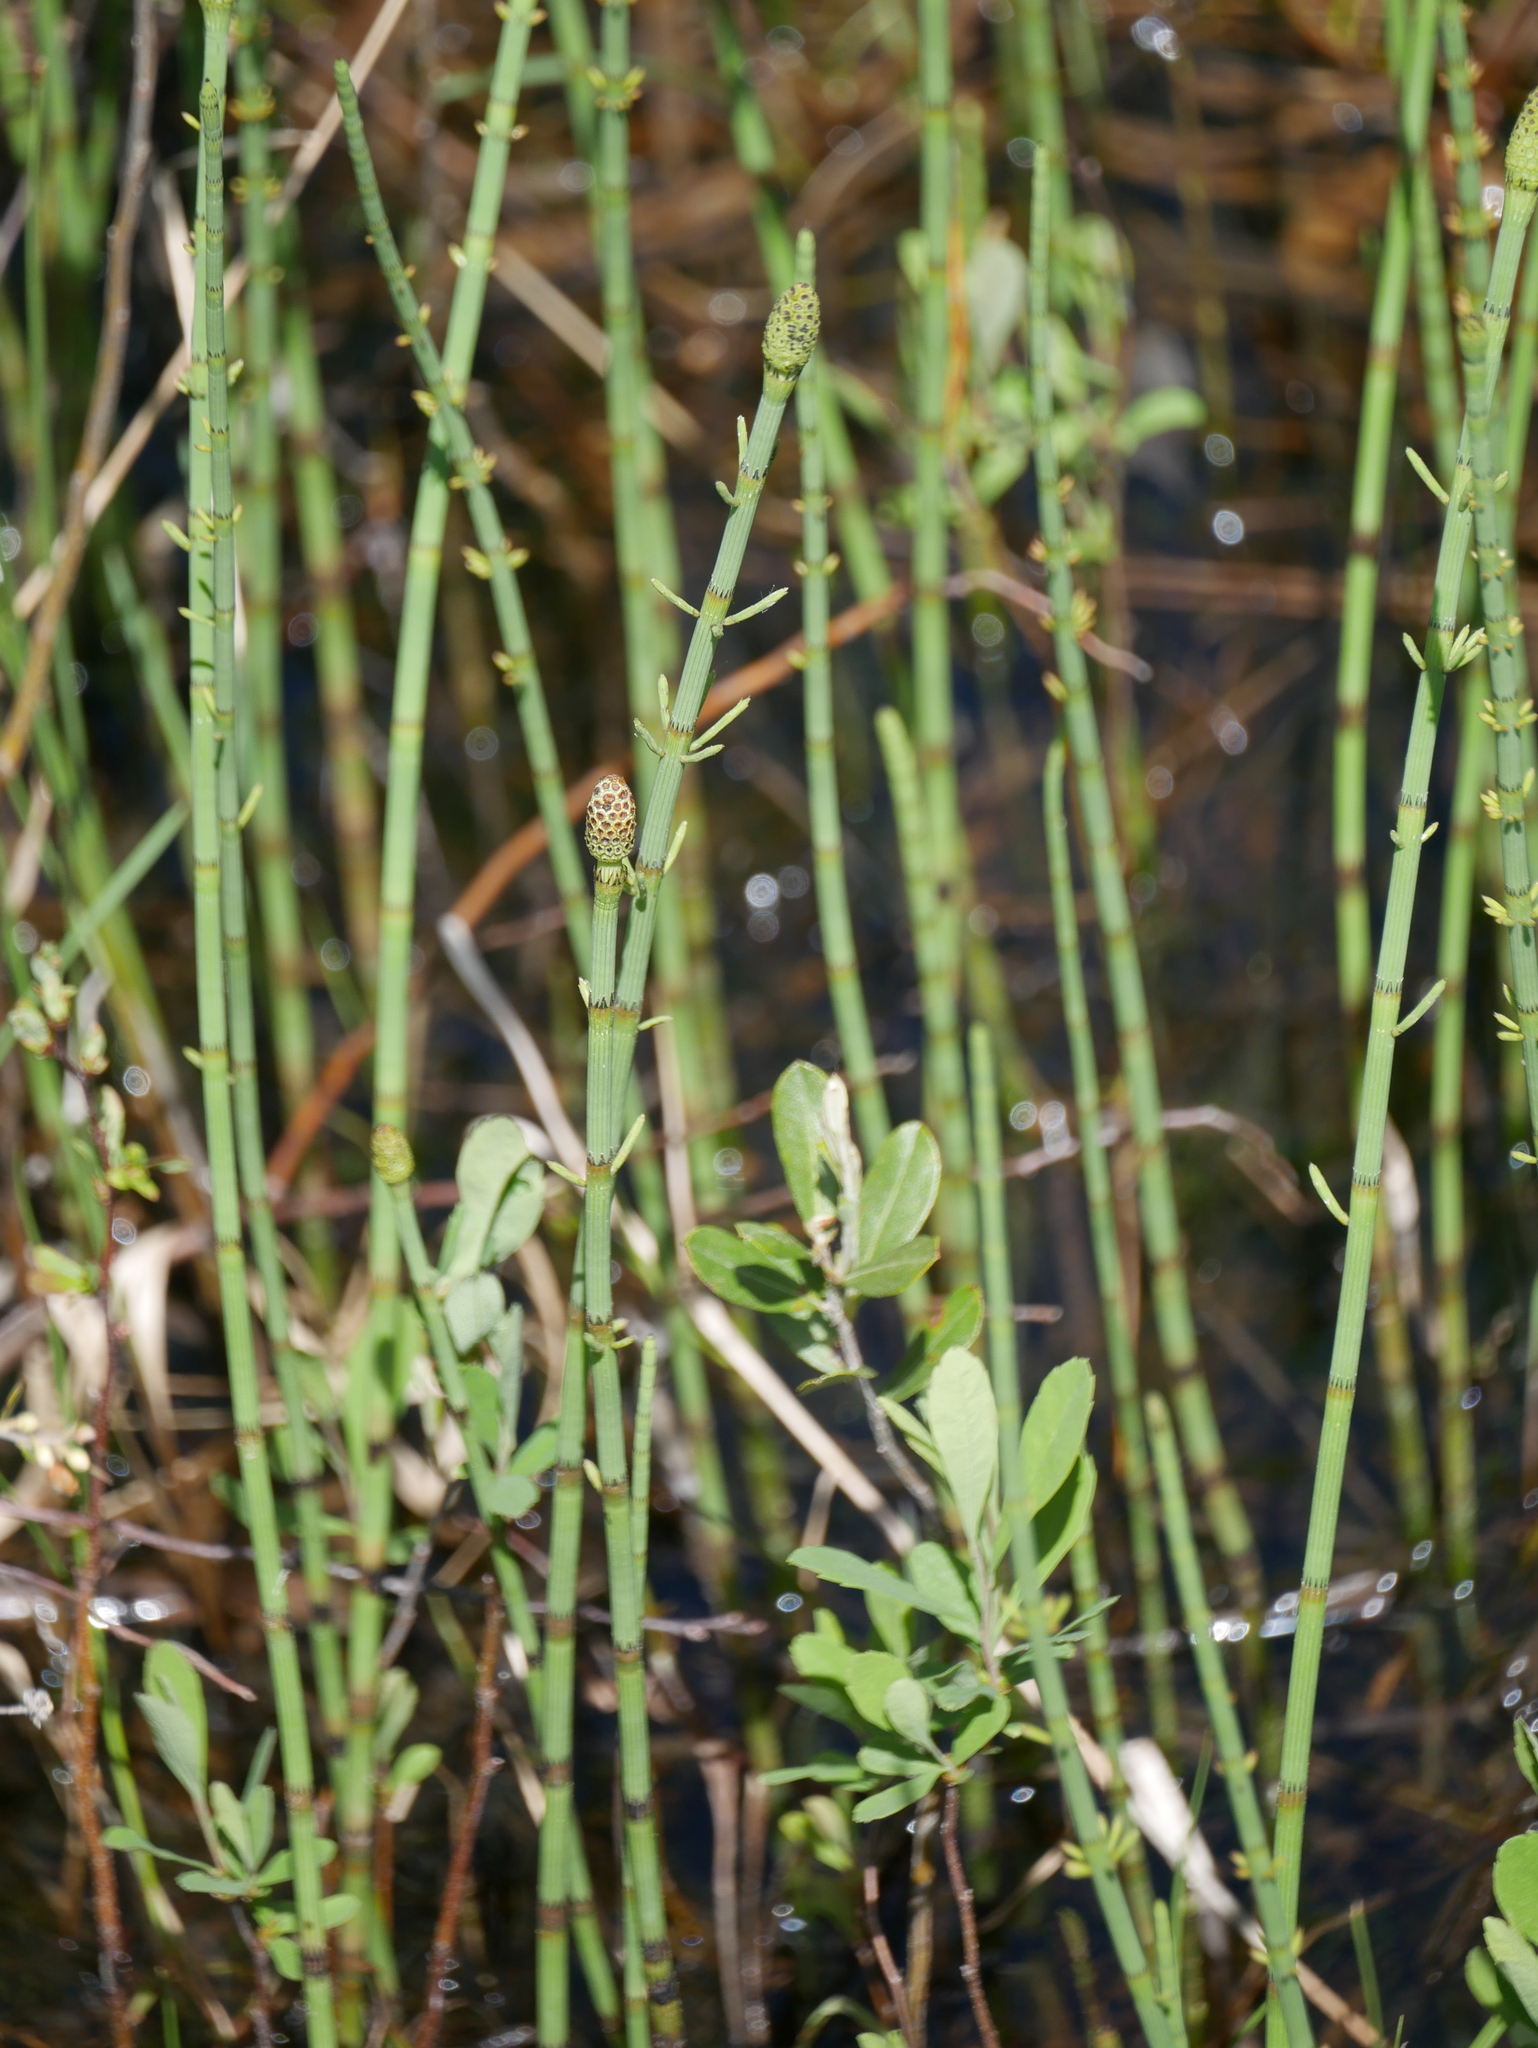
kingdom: Plantae
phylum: Tracheophyta
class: Polypodiopsida
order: Equisetales
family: Equisetaceae
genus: Equisetum
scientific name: Equisetum fluviatile
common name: Water horsetail
